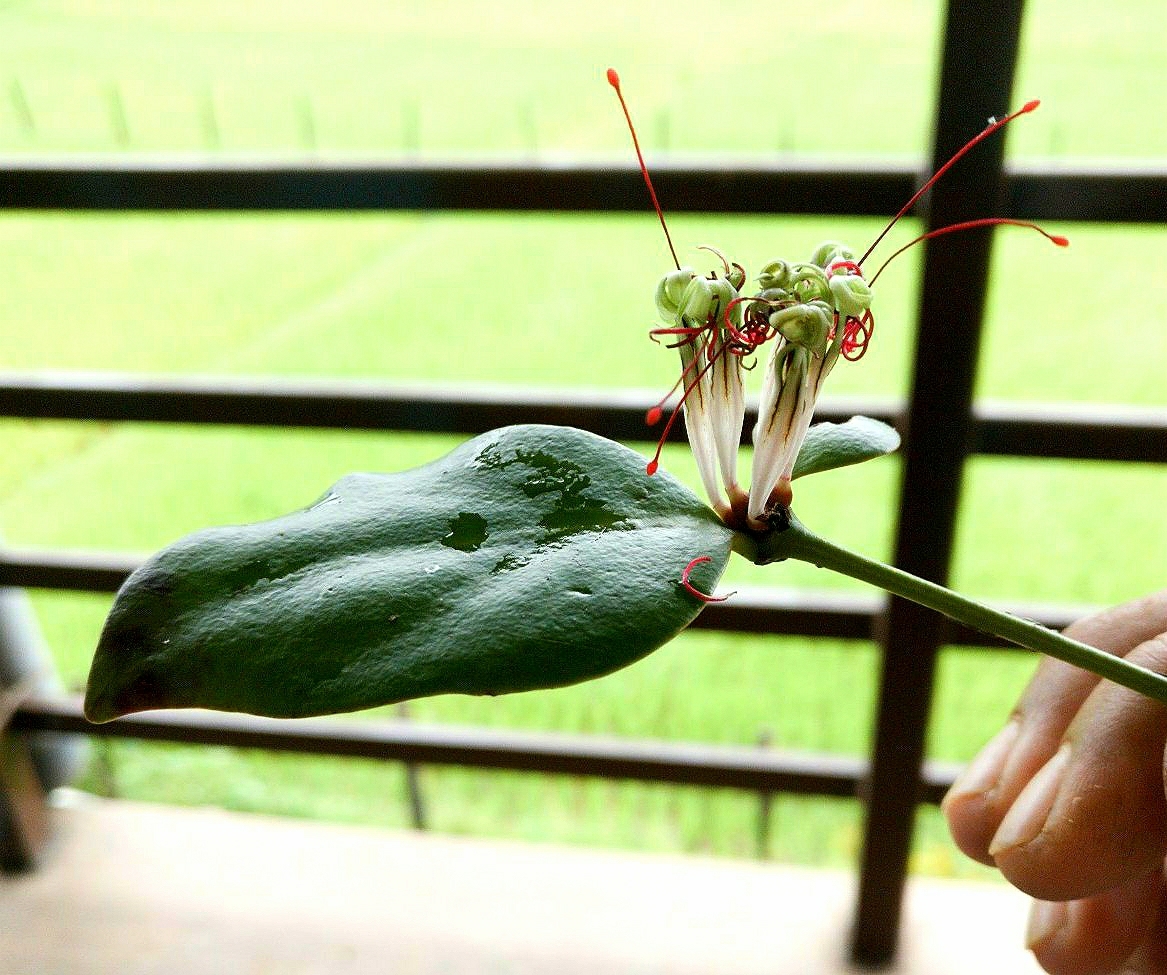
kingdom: Plantae
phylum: Tracheophyta
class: Magnoliopsida
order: Santalales
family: Loranthaceae
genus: Helicanthes
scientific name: Helicanthes elastica
